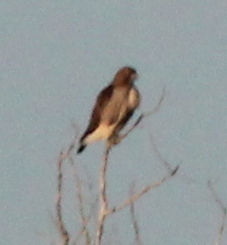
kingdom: Animalia
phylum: Chordata
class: Aves
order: Accipitriformes
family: Accipitridae
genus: Buteo
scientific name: Buteo jamaicensis
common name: Red-tailed hawk
